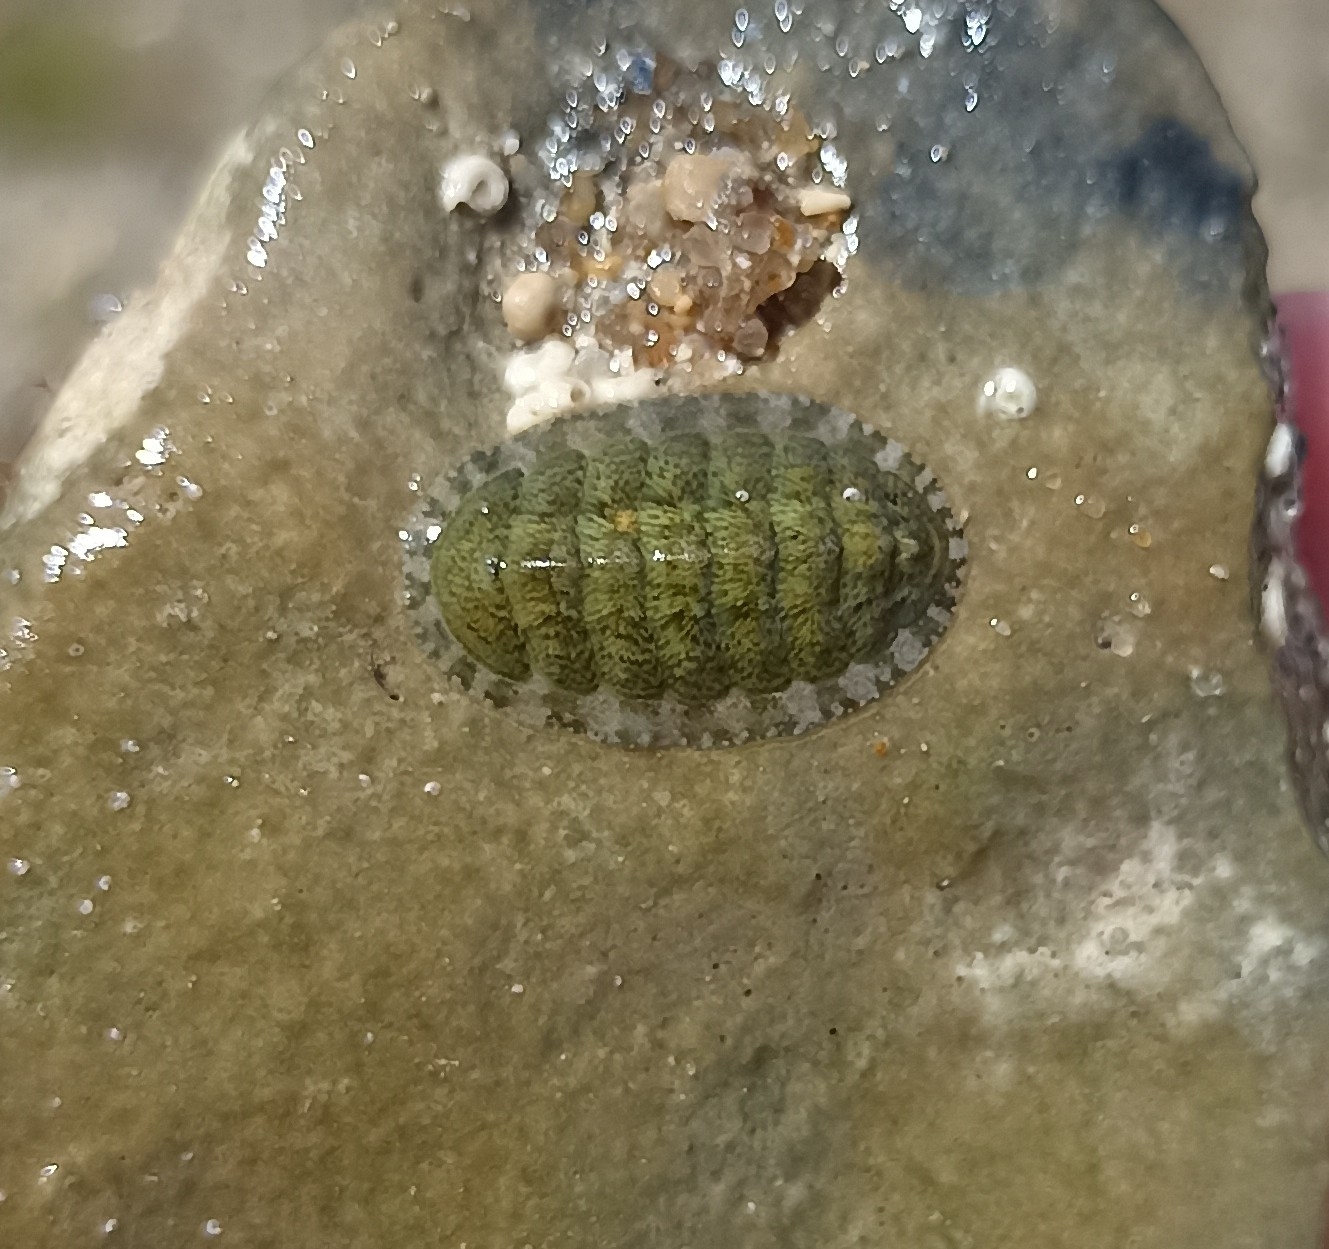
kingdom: Animalia
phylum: Mollusca
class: Polyplacophora
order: Chitonida
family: Tonicellidae
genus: Lepidochitona
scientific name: Lepidochitona cinerea
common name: Cinereous chiton
